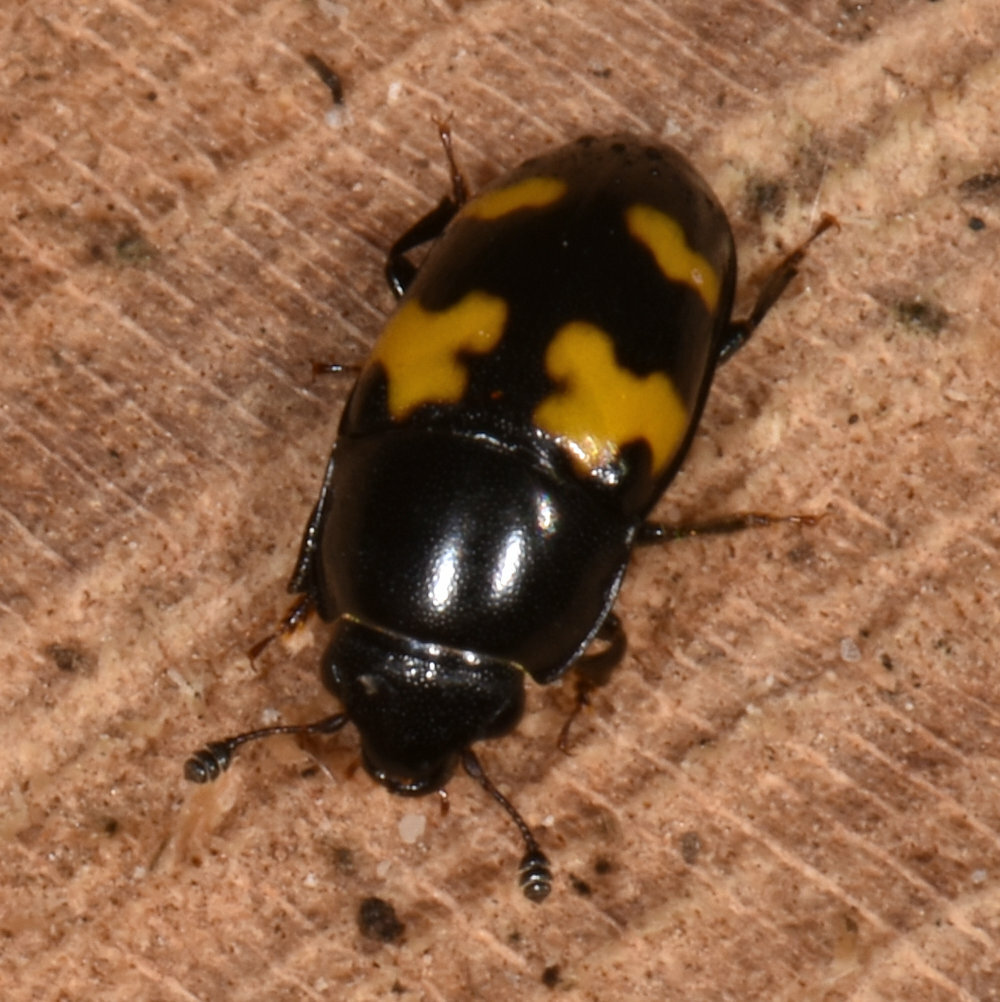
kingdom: Animalia
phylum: Arthropoda
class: Insecta
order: Coleoptera
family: Nitidulidae
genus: Glischrochilus
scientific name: Glischrochilus fasciatus
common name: Picnic beetle
